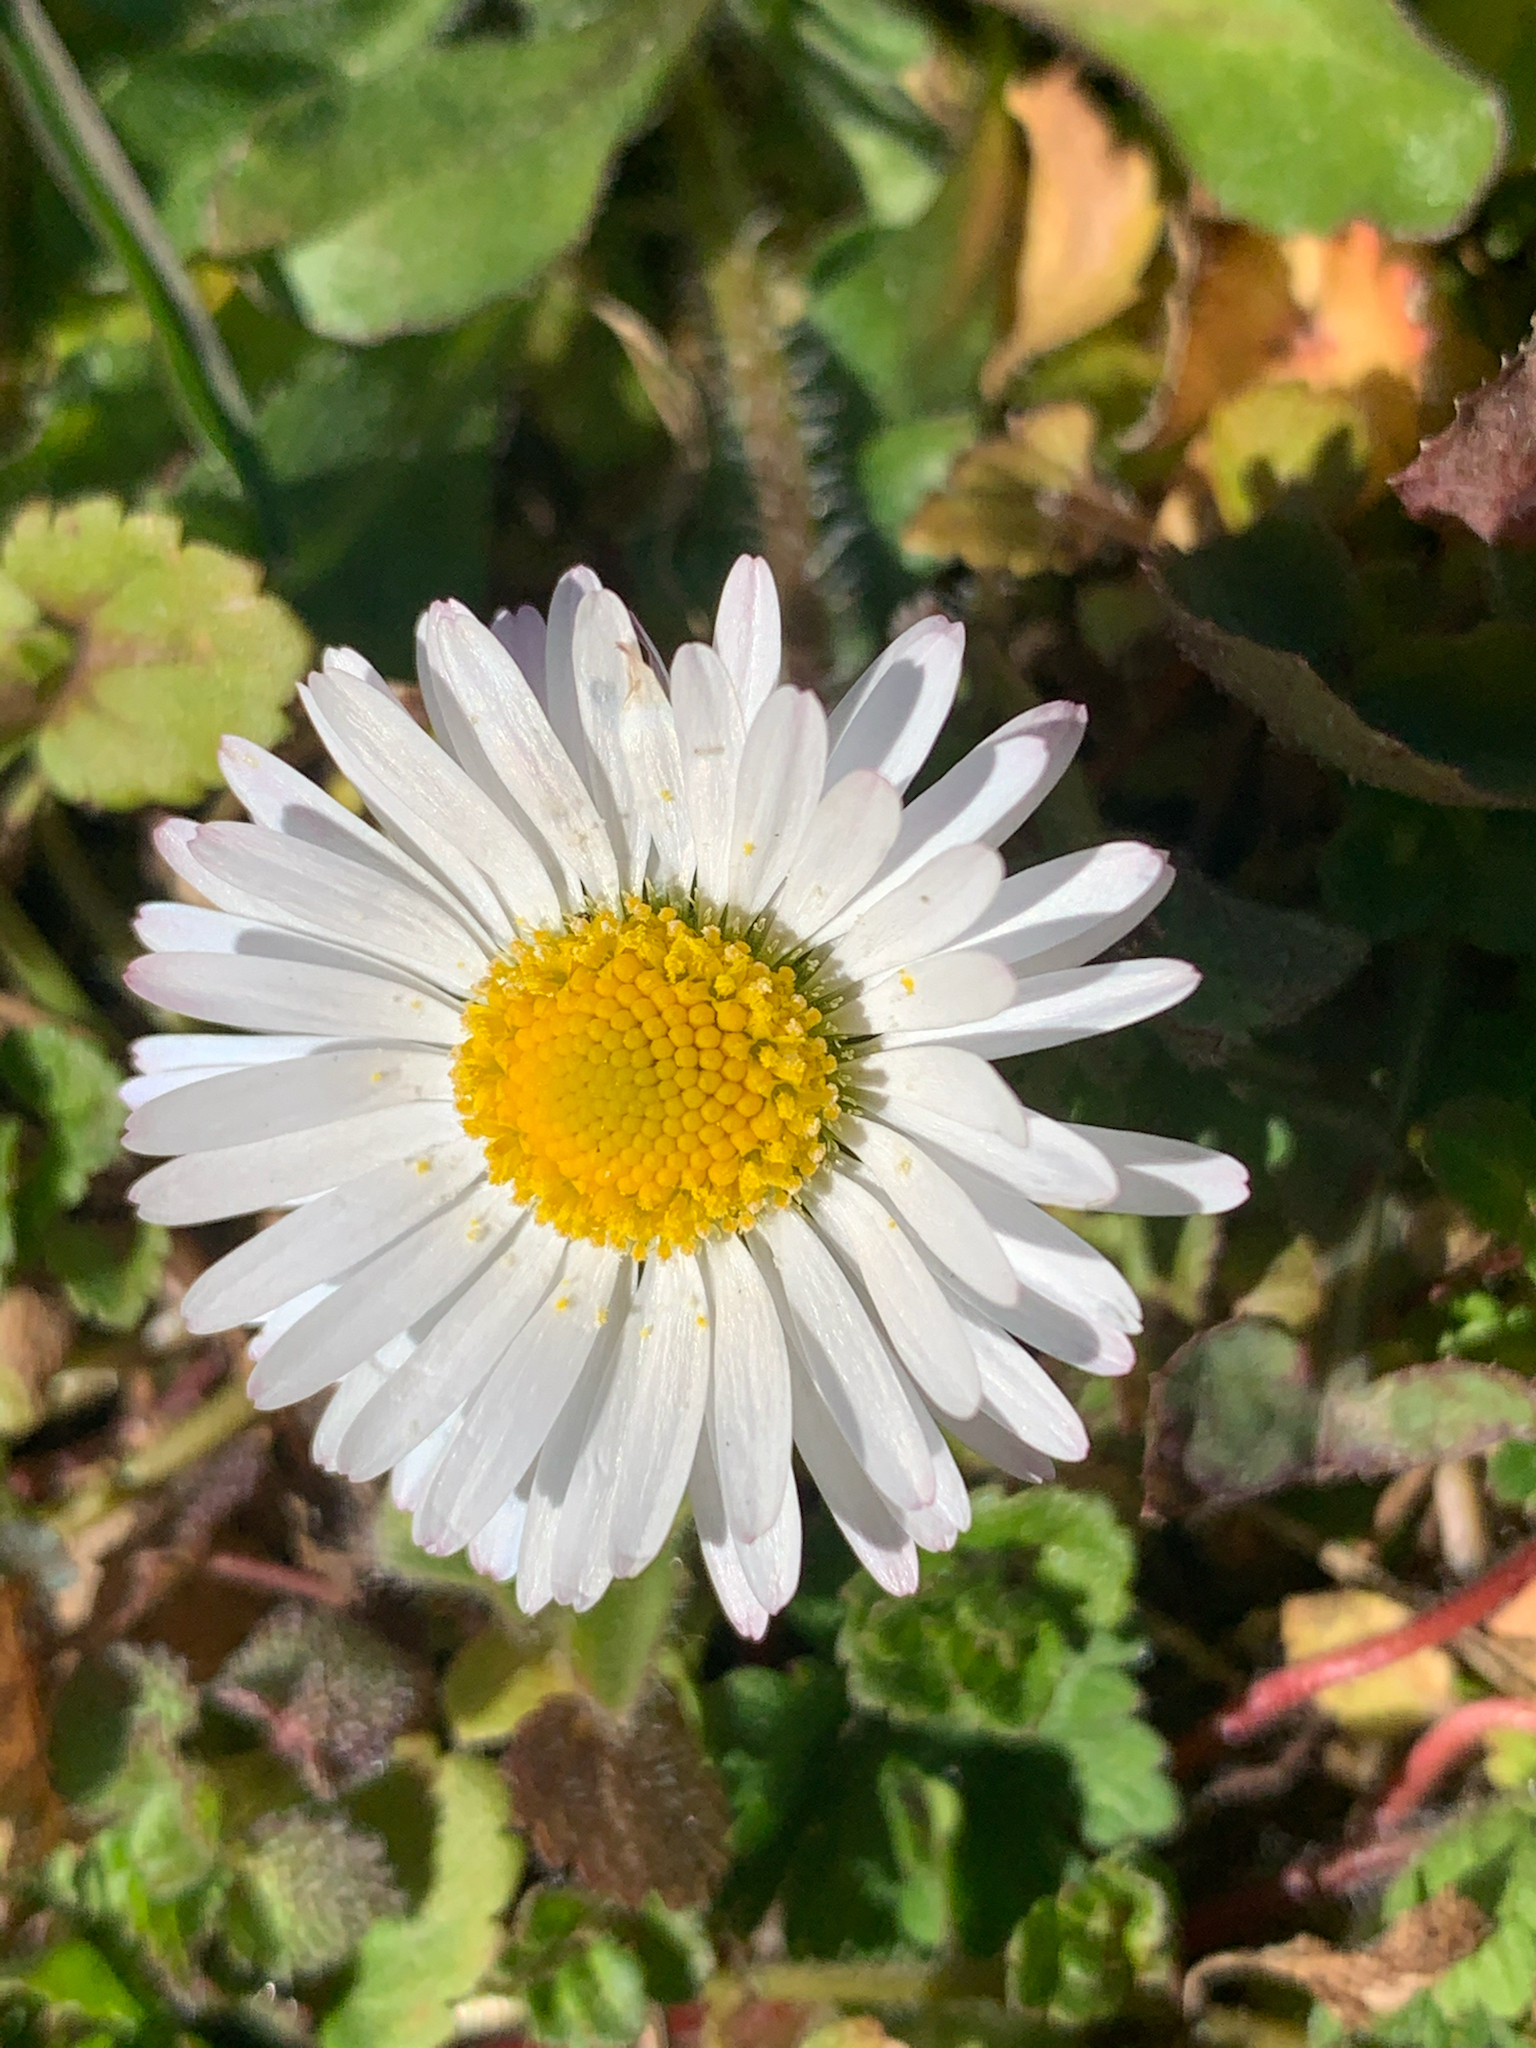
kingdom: Plantae
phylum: Tracheophyta
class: Magnoliopsida
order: Asterales
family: Asteraceae
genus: Bellis
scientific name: Bellis perennis
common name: Lawndaisy
